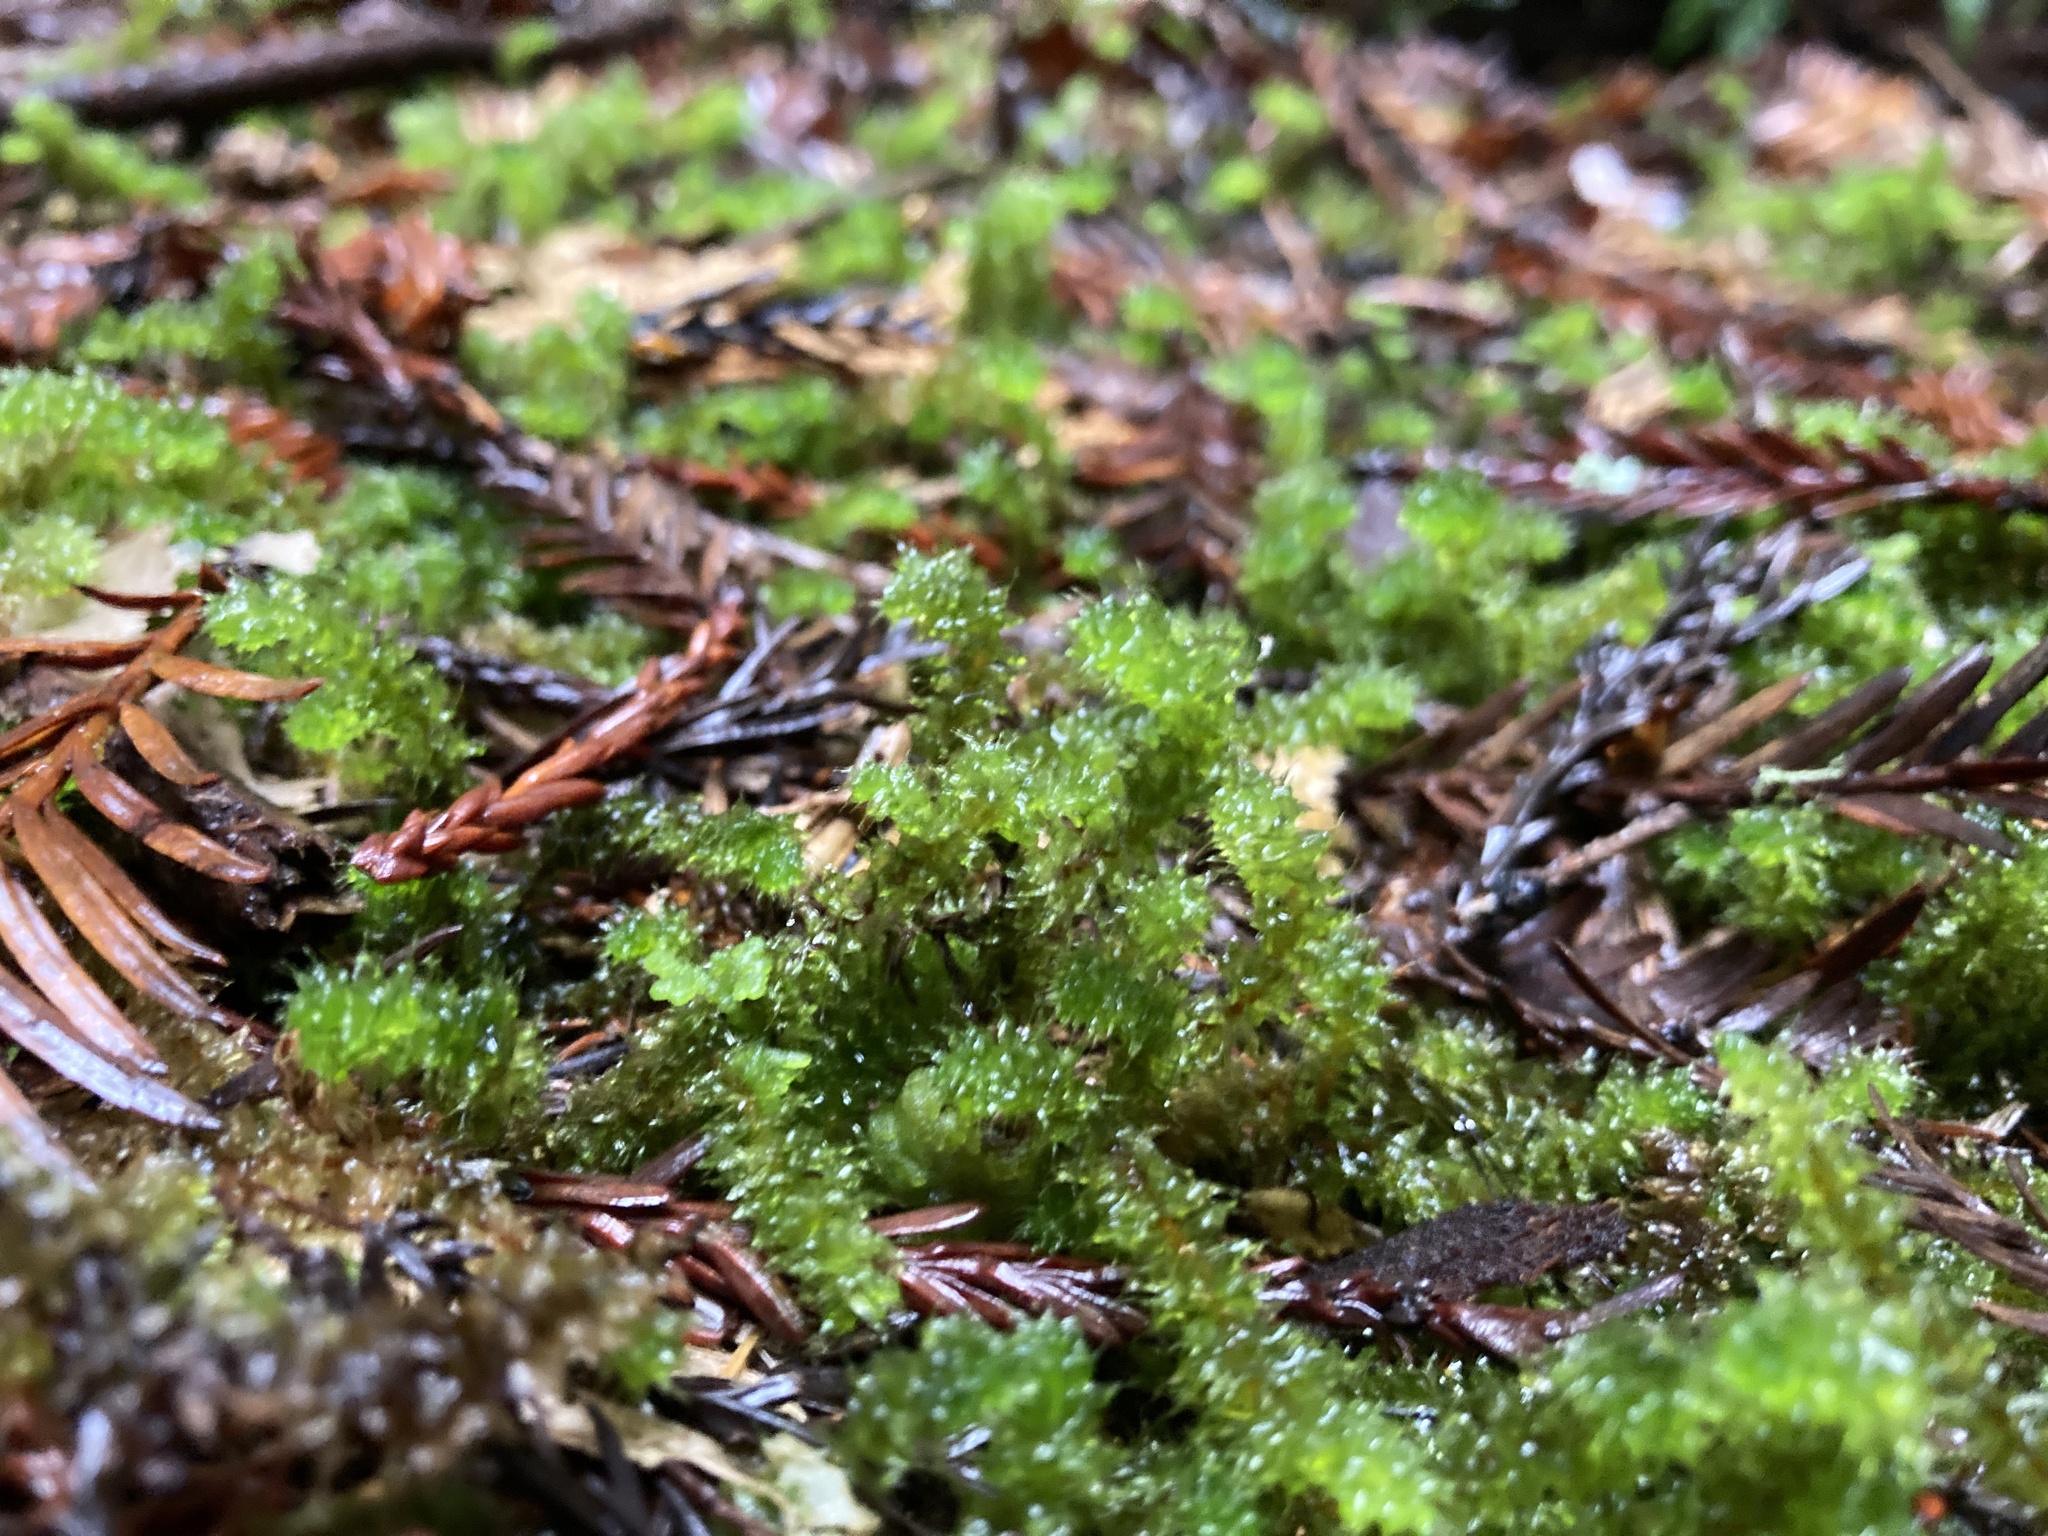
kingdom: Plantae
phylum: Bryophyta
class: Bryopsida
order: Ptychomniales
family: Ptychomniaceae
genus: Ptychomnion
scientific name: Ptychomnion aciculare
